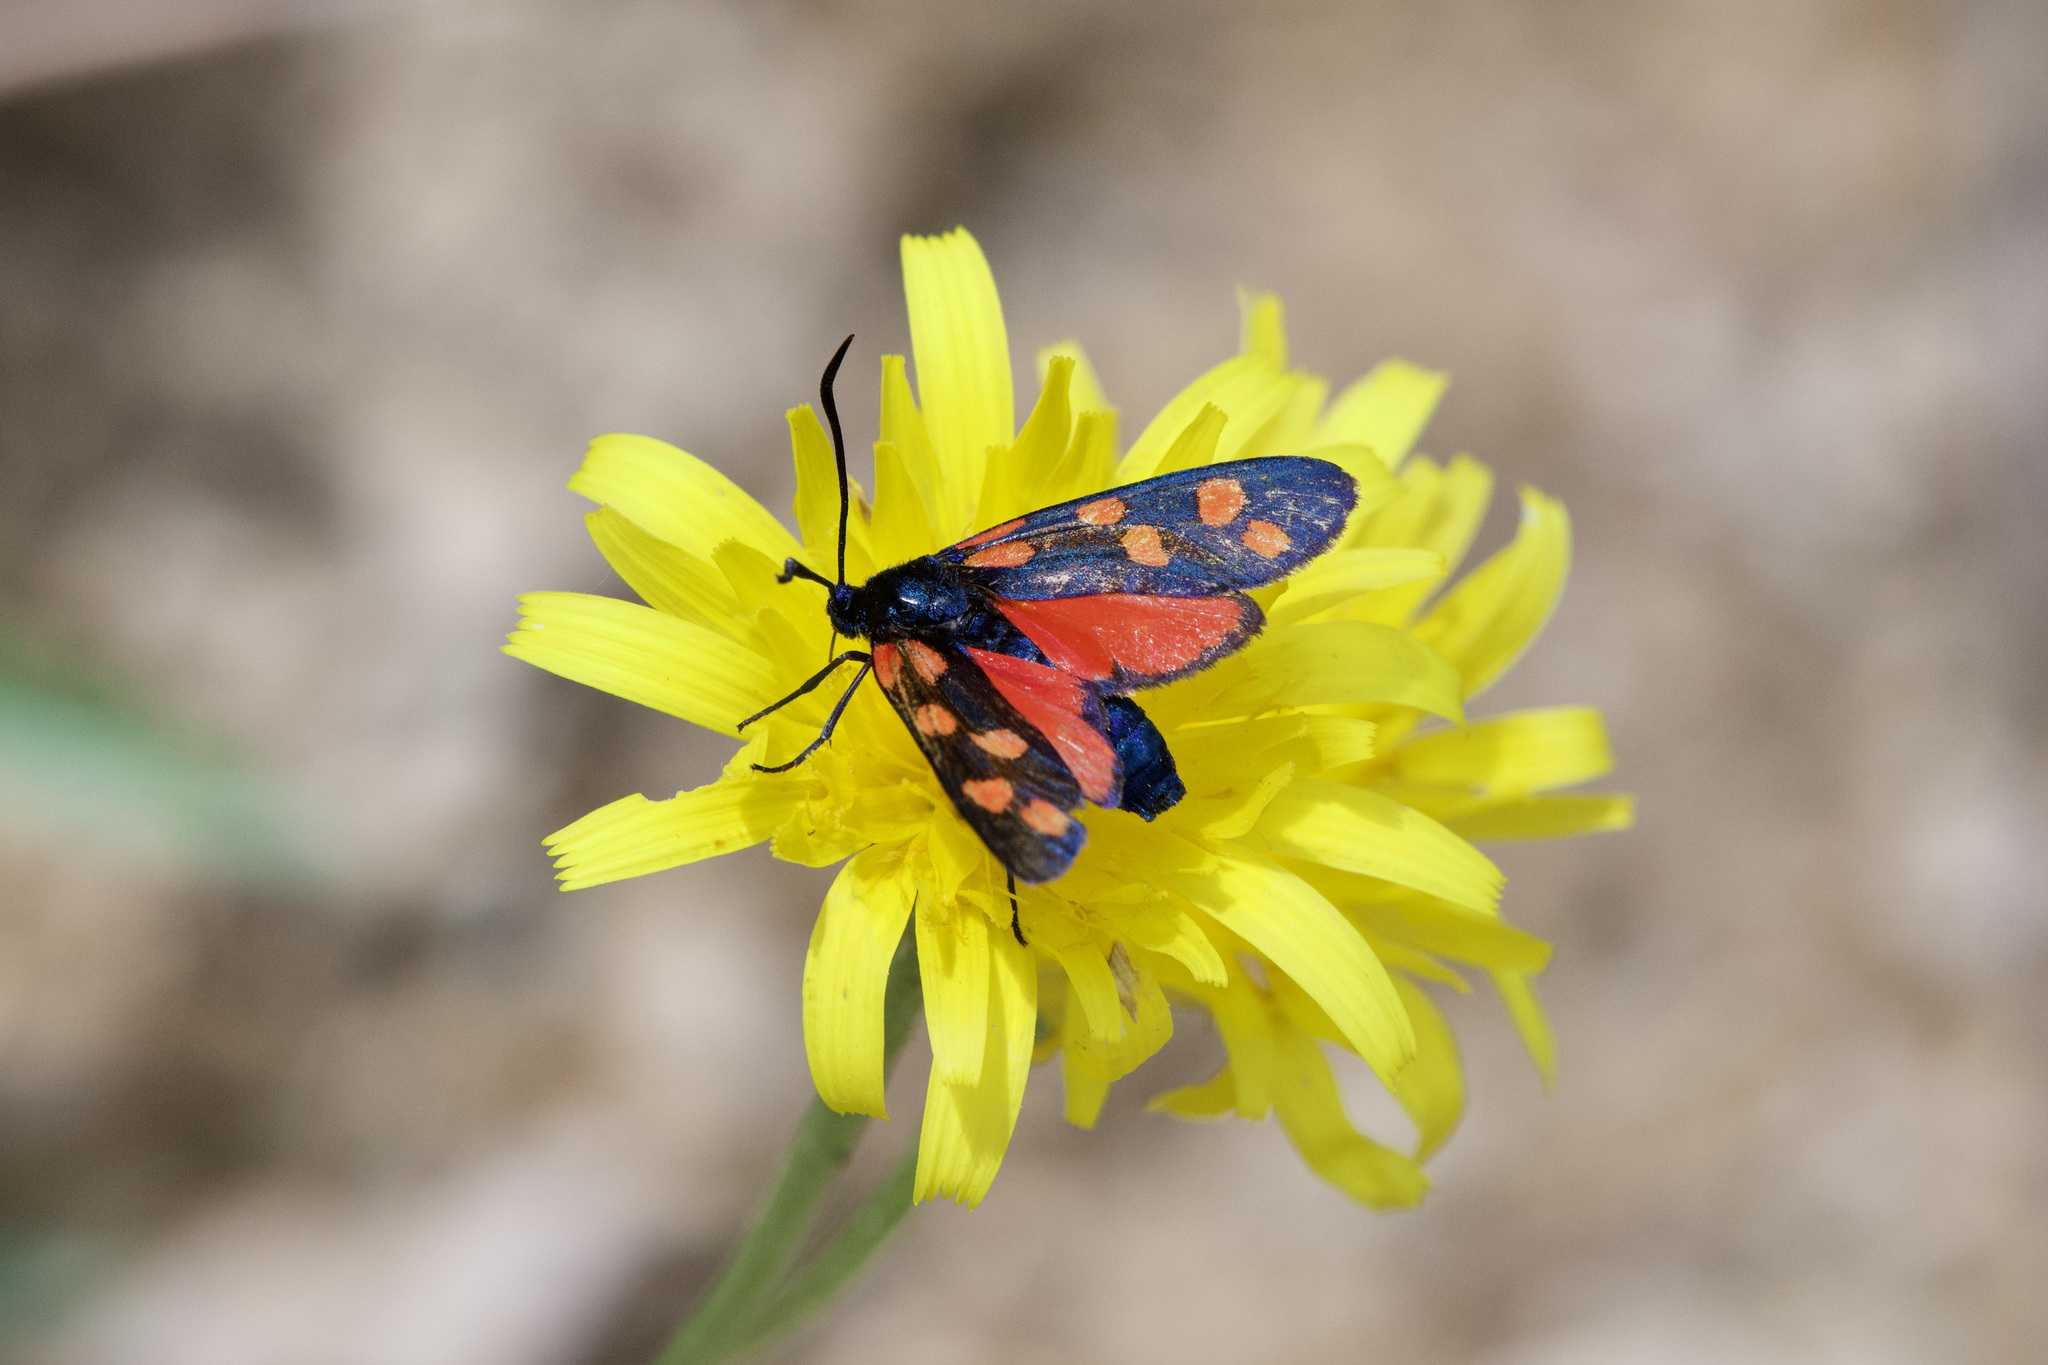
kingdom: Animalia
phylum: Arthropoda
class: Insecta
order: Lepidoptera
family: Zygaenidae
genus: Zygaena
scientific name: Zygaena transalpina
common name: Southern six spot burnet
